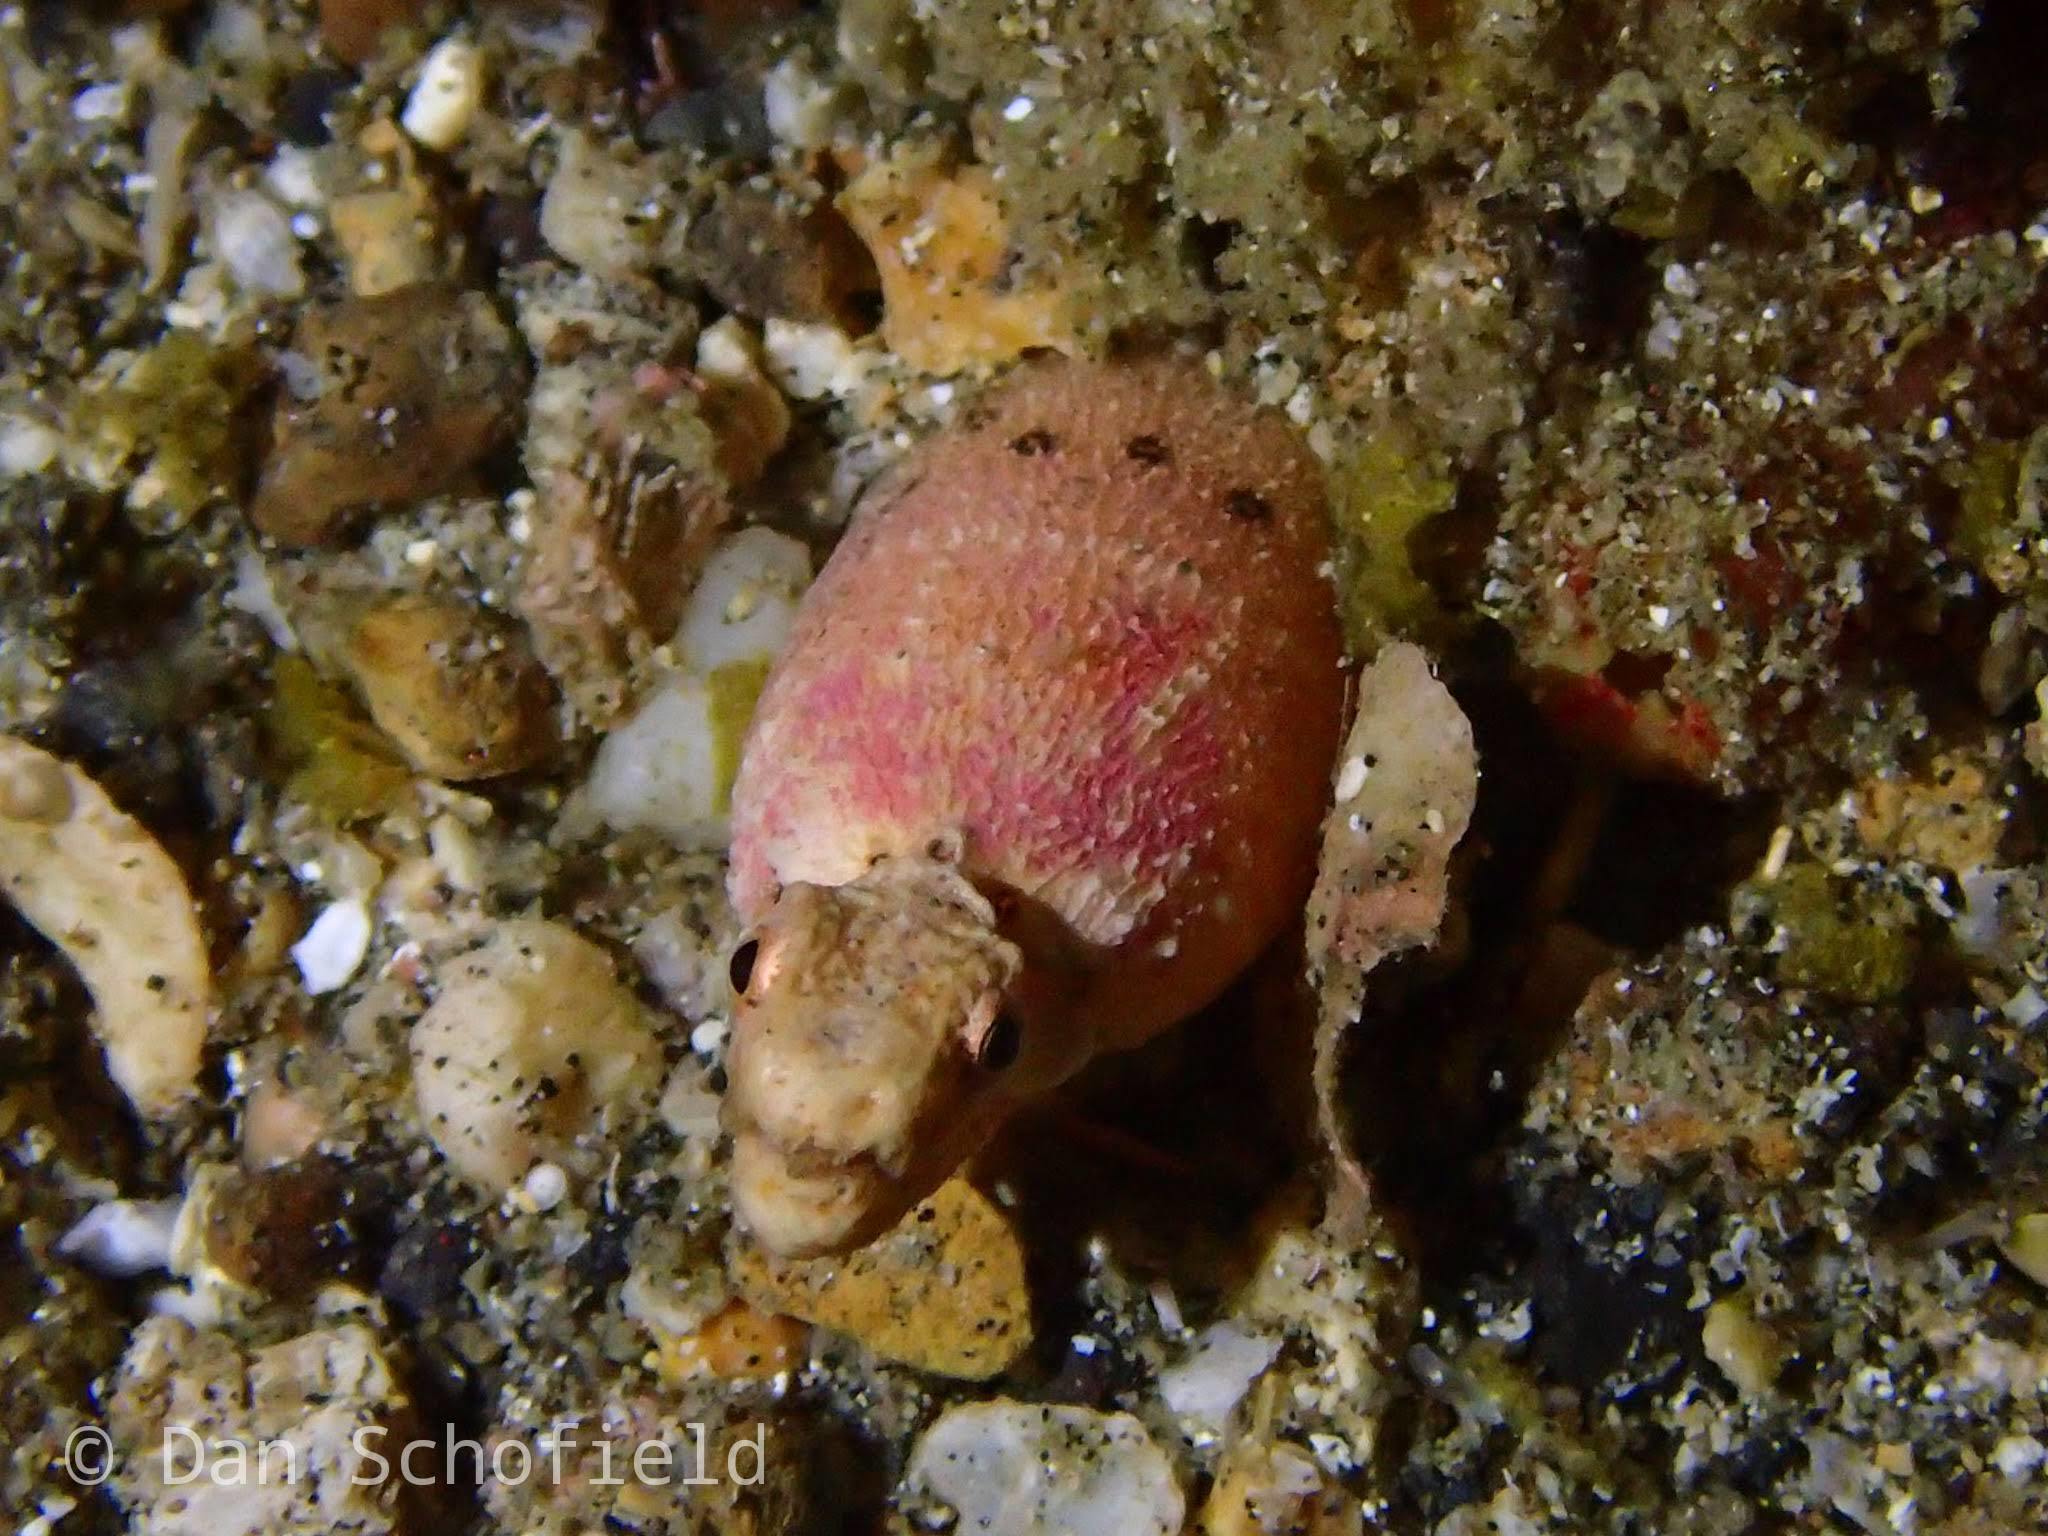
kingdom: Animalia
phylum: Chordata
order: Anguilliformes
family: Ophichthidae
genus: Brachysomophis
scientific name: Brachysomophis henshawi
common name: Crocodile snake eel
